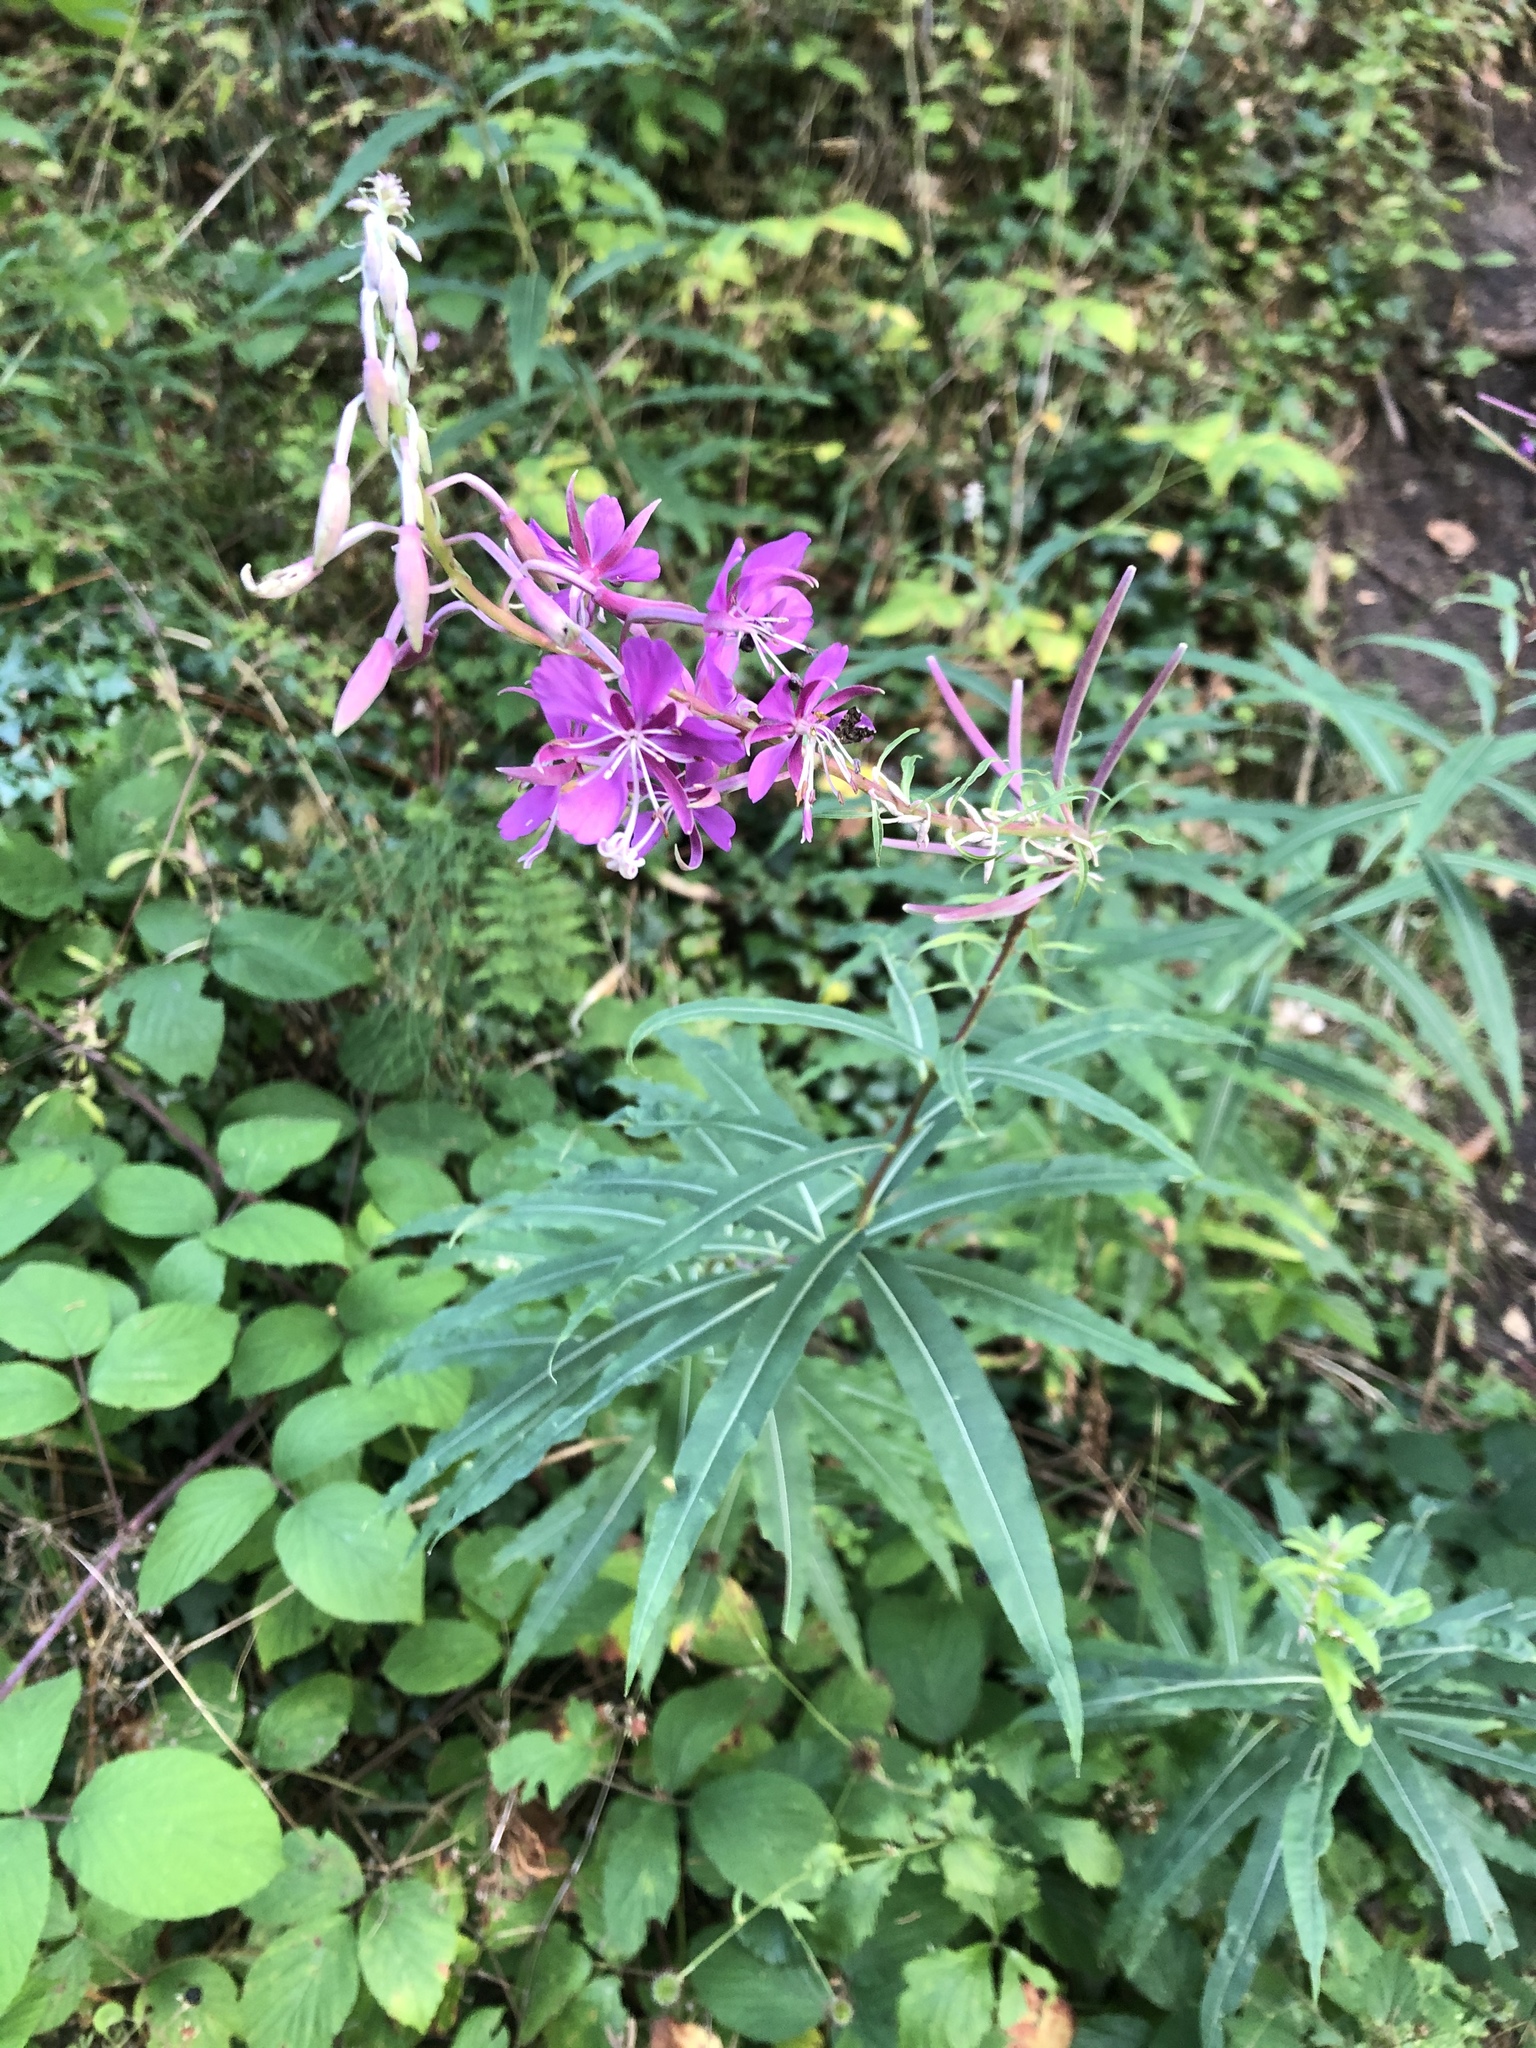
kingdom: Plantae
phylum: Tracheophyta
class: Magnoliopsida
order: Myrtales
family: Onagraceae
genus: Chamaenerion
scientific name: Chamaenerion angustifolium
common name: Fireweed
